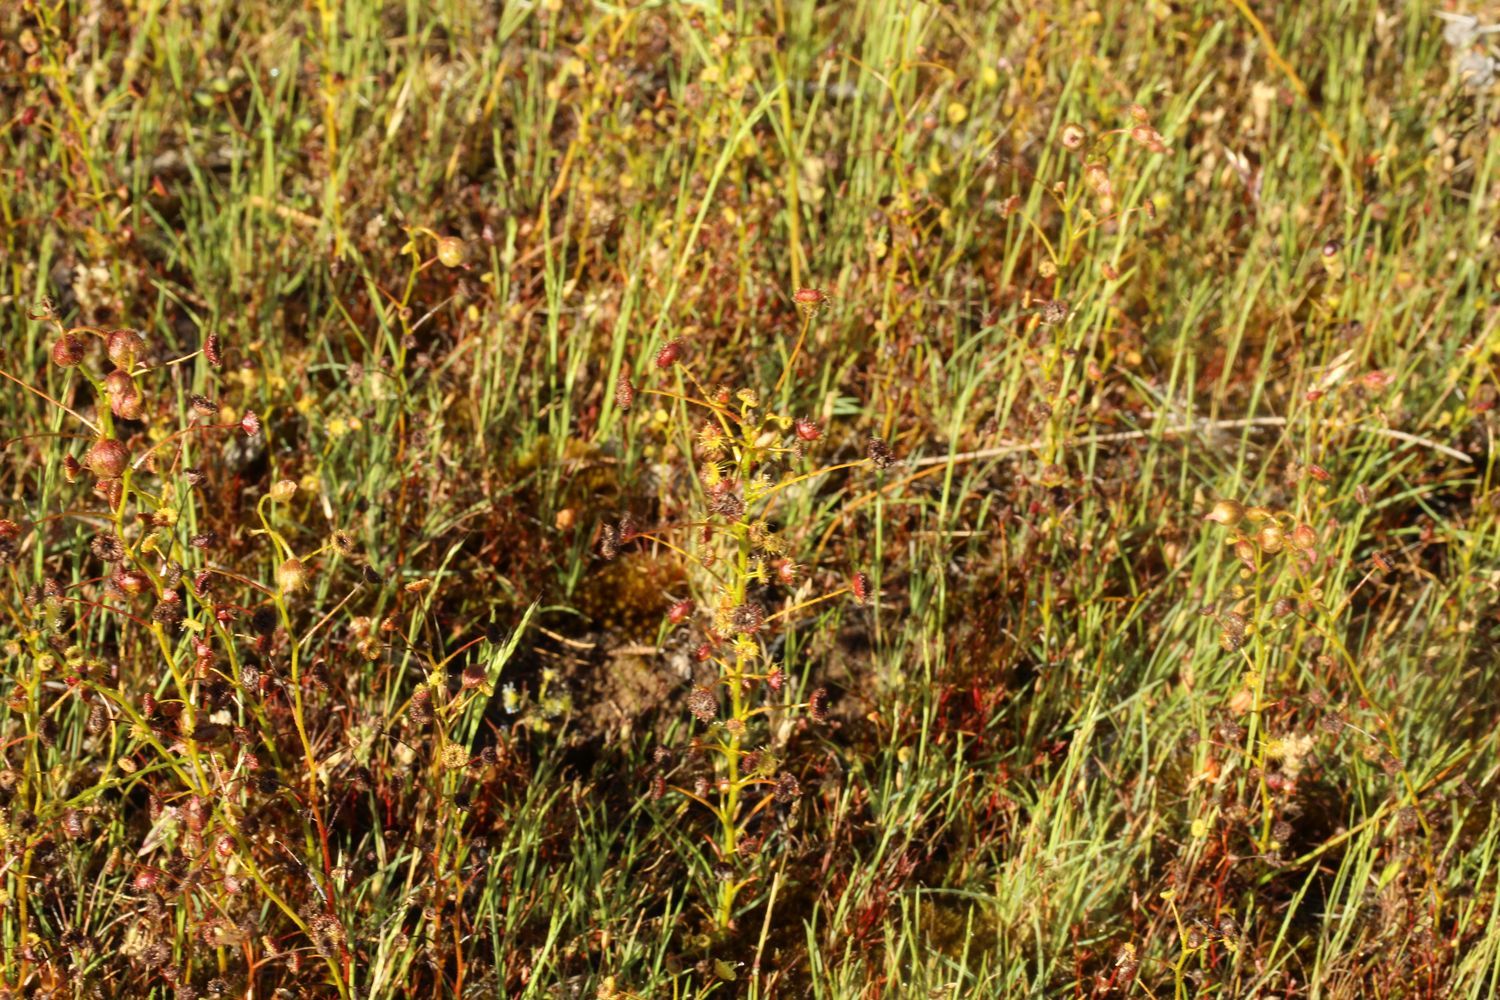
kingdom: Plantae
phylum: Tracheophyta
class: Magnoliopsida
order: Caryophyllales
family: Droseraceae
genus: Drosera
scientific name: Drosera stricticaulis
